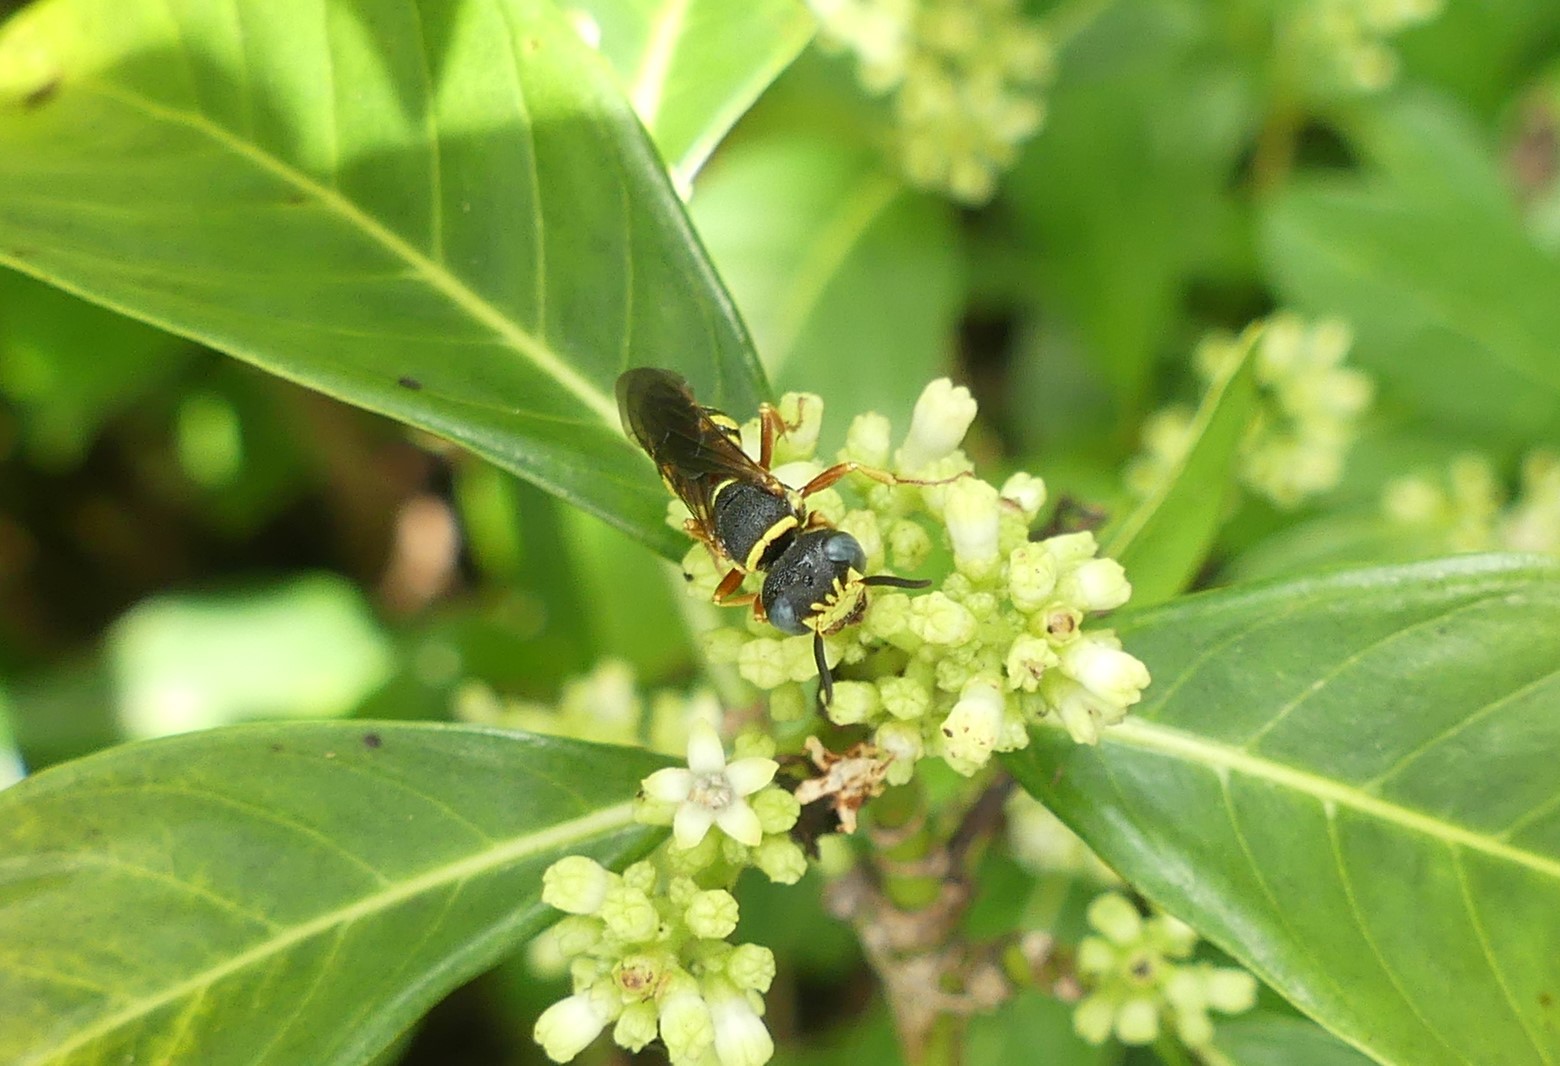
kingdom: Animalia
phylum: Arthropoda
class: Insecta
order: Hymenoptera
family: Crabronidae
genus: Philanthus
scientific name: Philanthus ventilabris
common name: Bee-killer wasp
